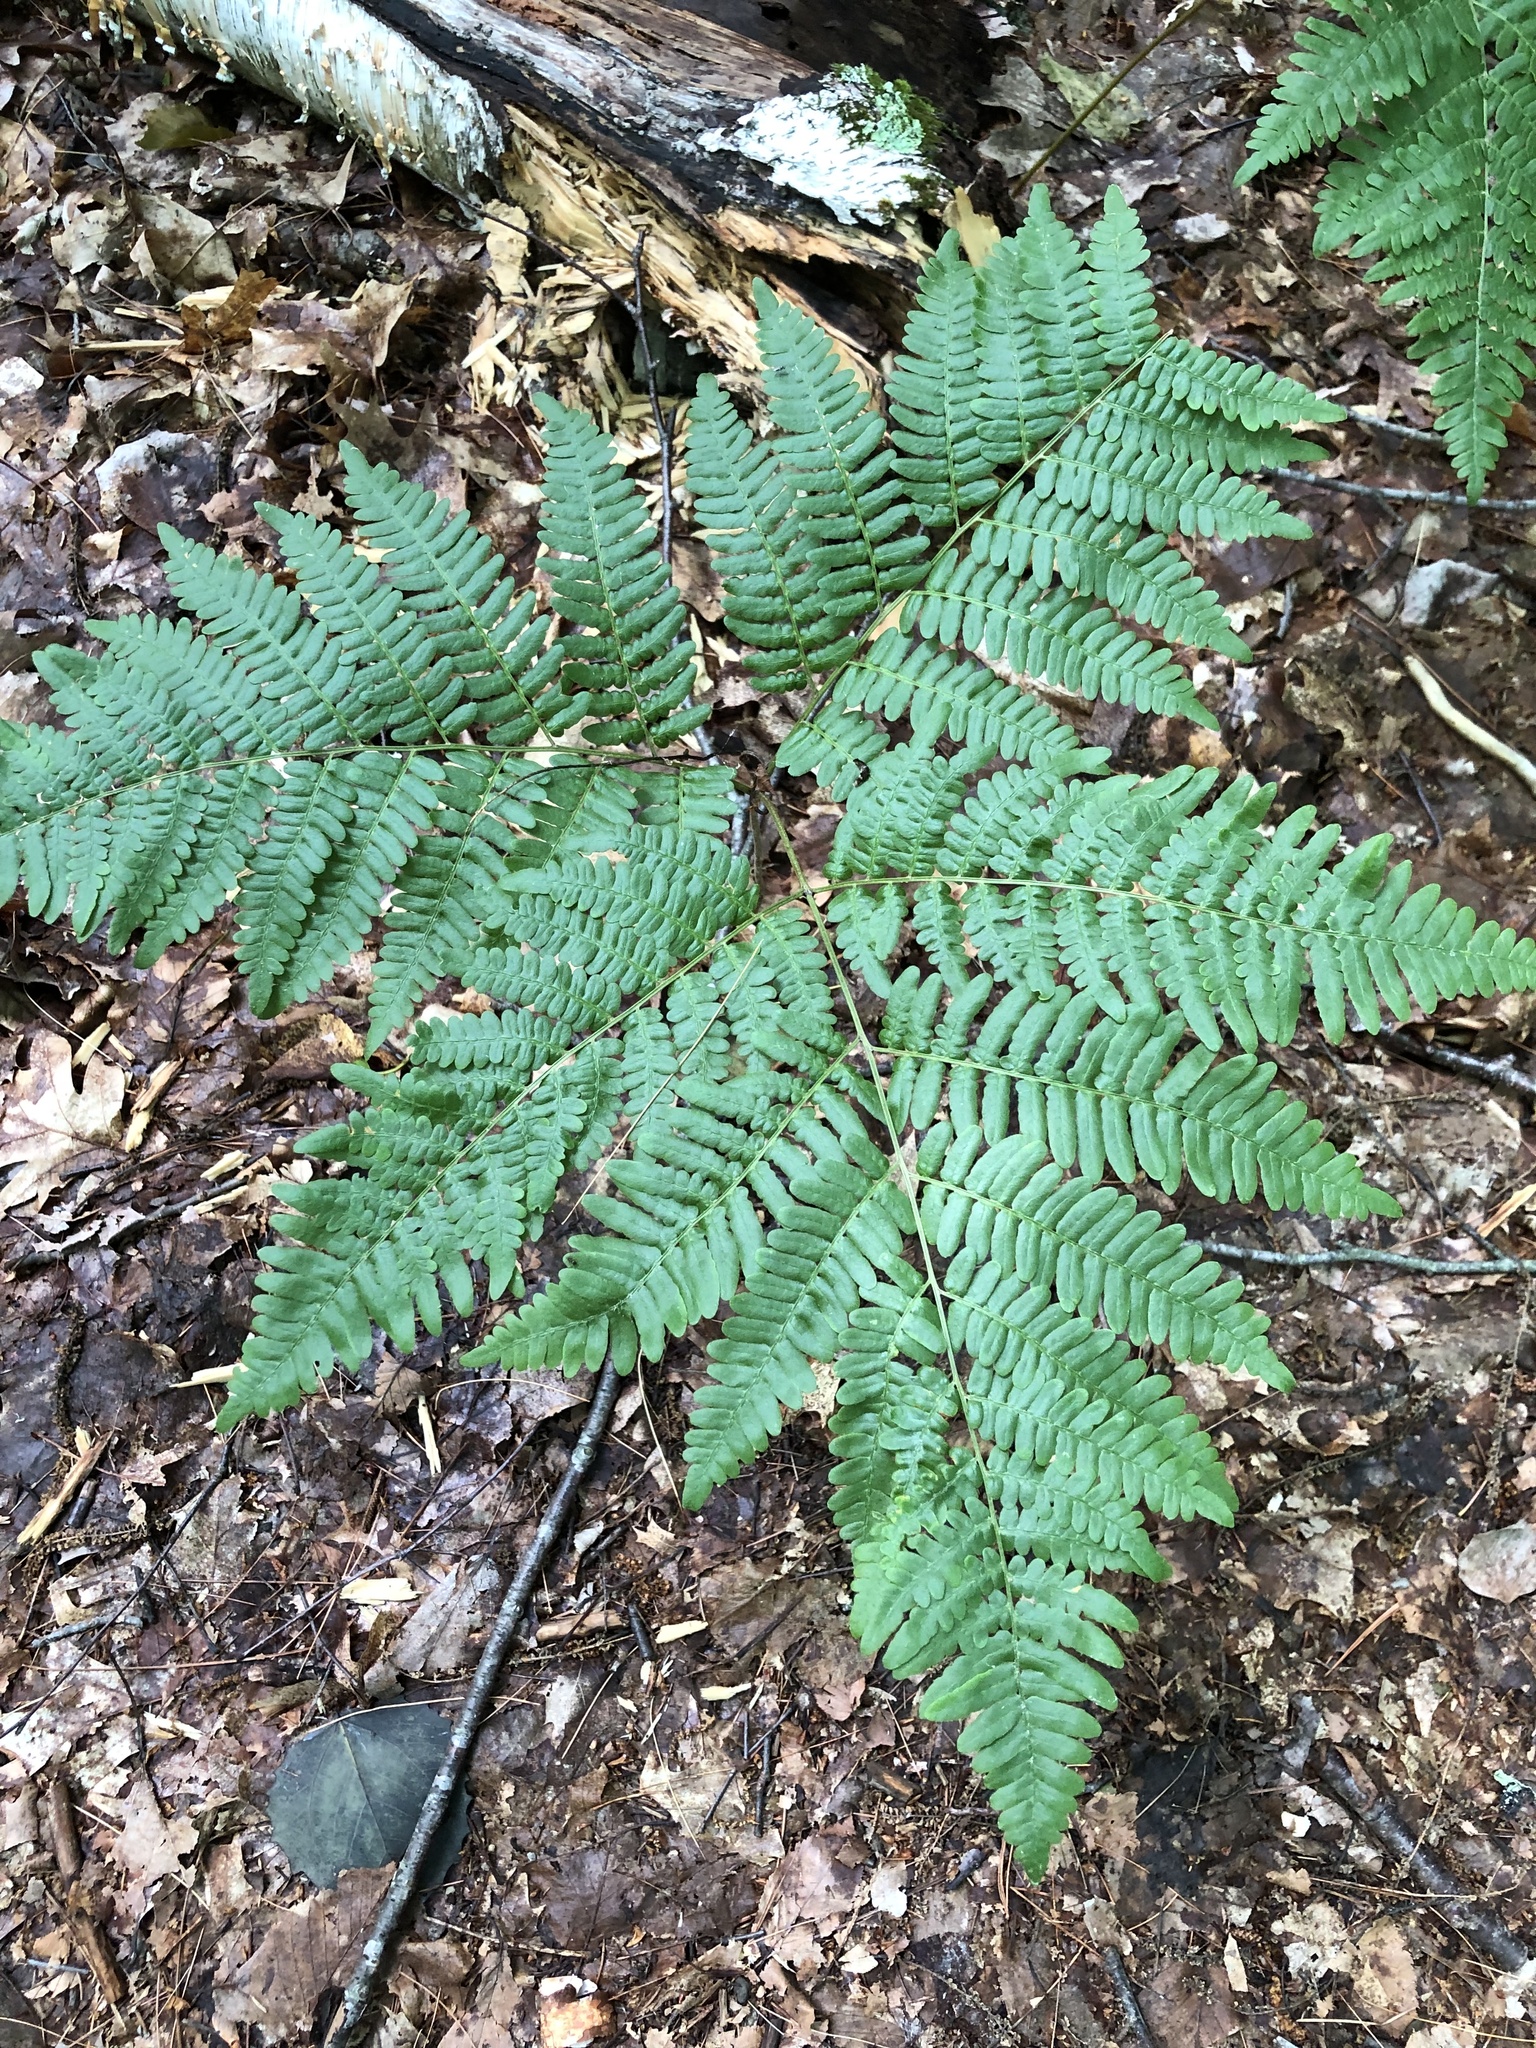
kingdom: Plantae
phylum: Tracheophyta
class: Polypodiopsida
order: Polypodiales
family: Dennstaedtiaceae
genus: Pteridium
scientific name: Pteridium aquilinum
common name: Bracken
